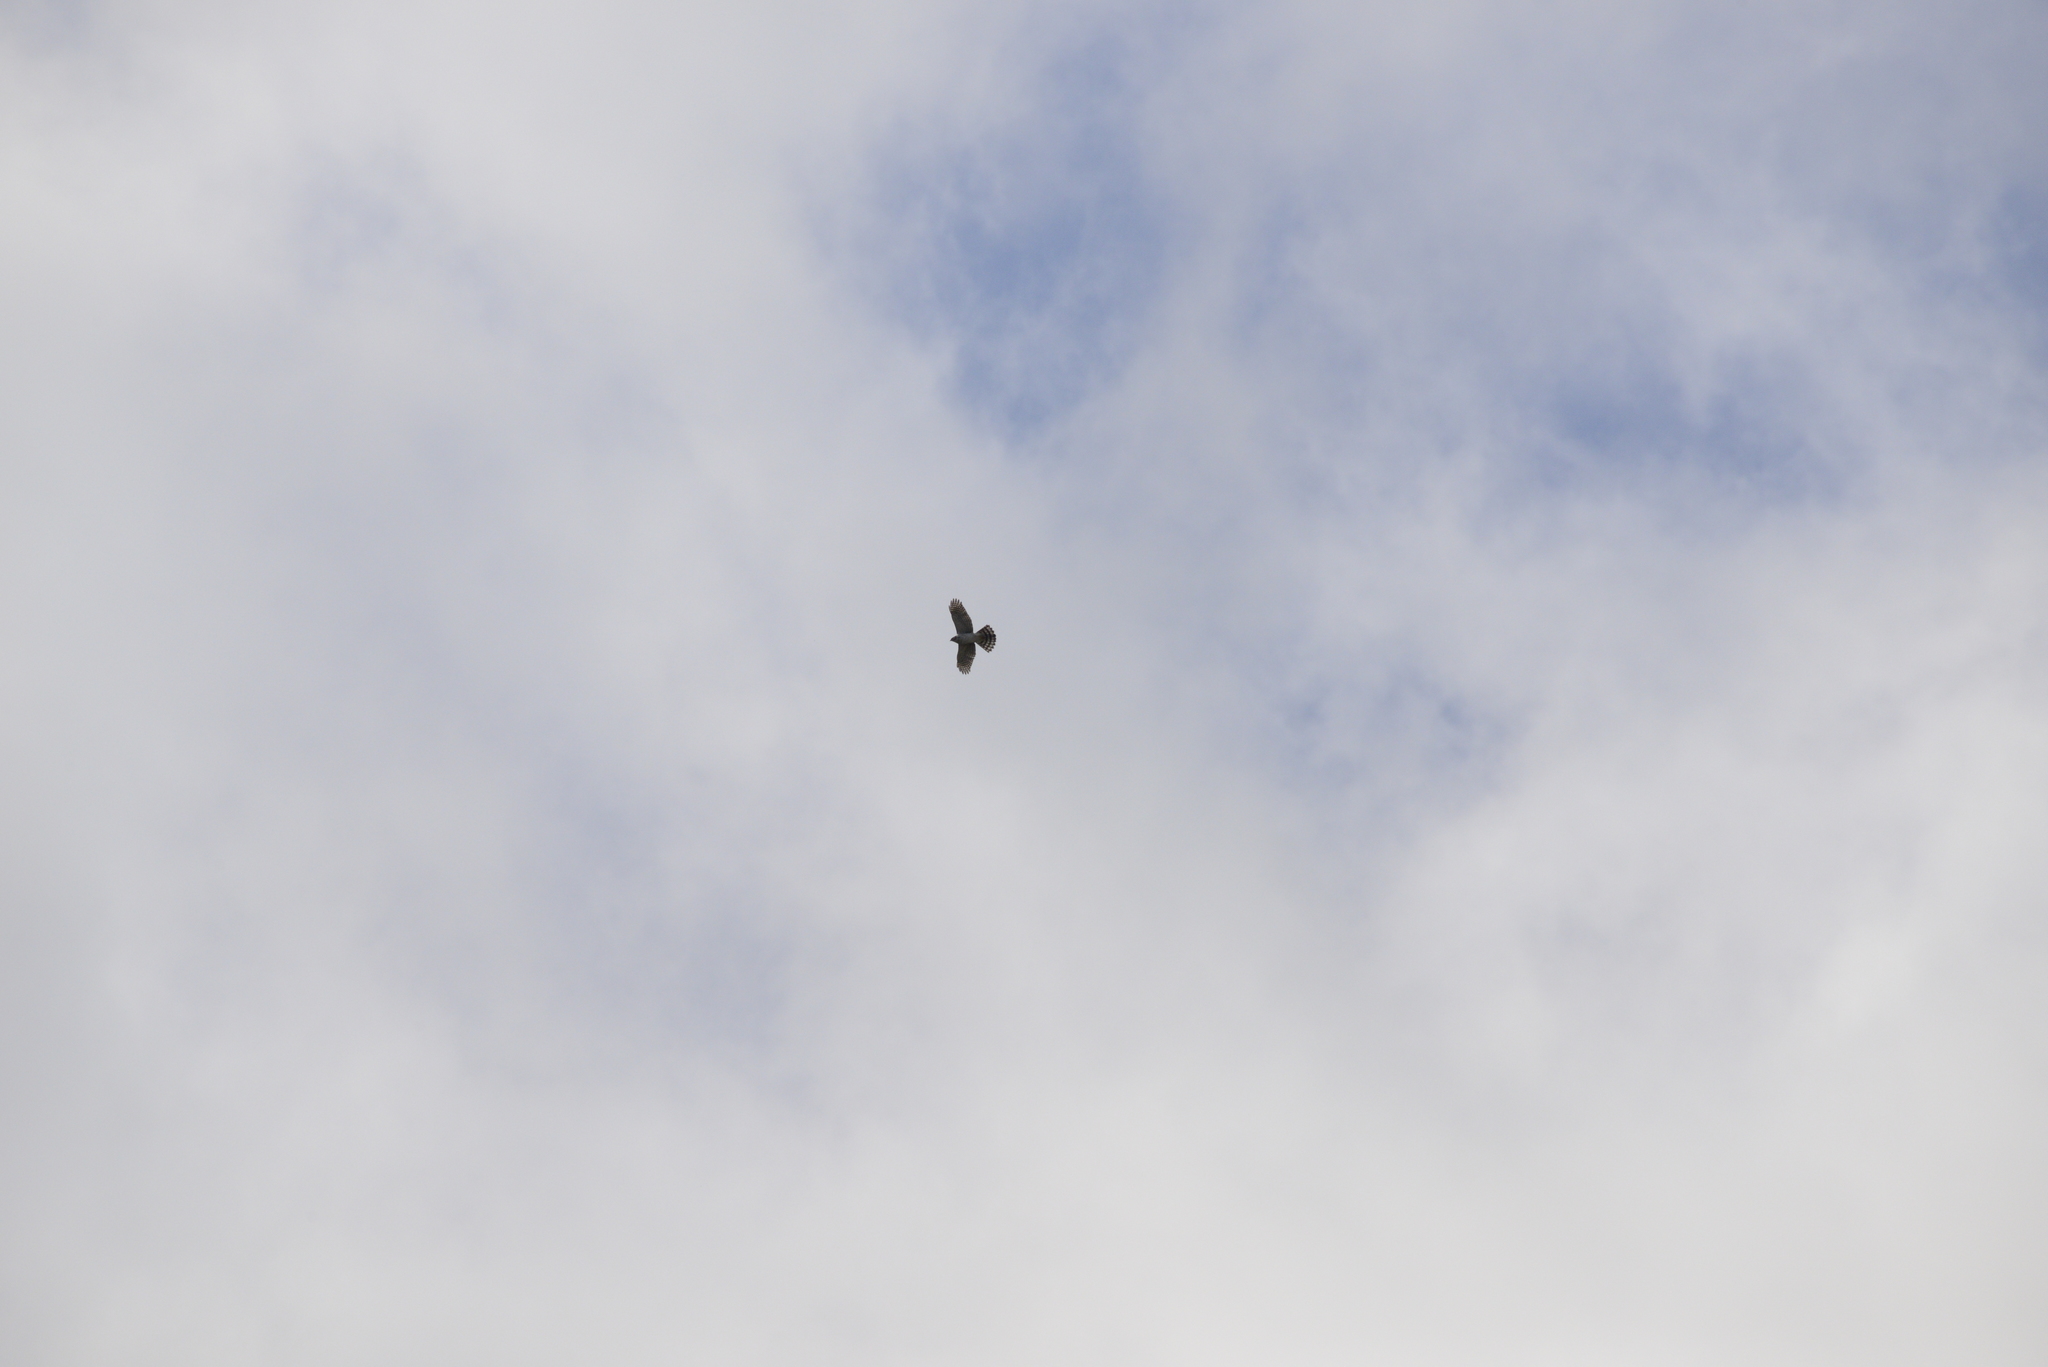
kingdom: Animalia
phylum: Chordata
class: Aves
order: Accipitriformes
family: Accipitridae
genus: Accipiter
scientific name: Accipiter cooperii
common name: Cooper's hawk
